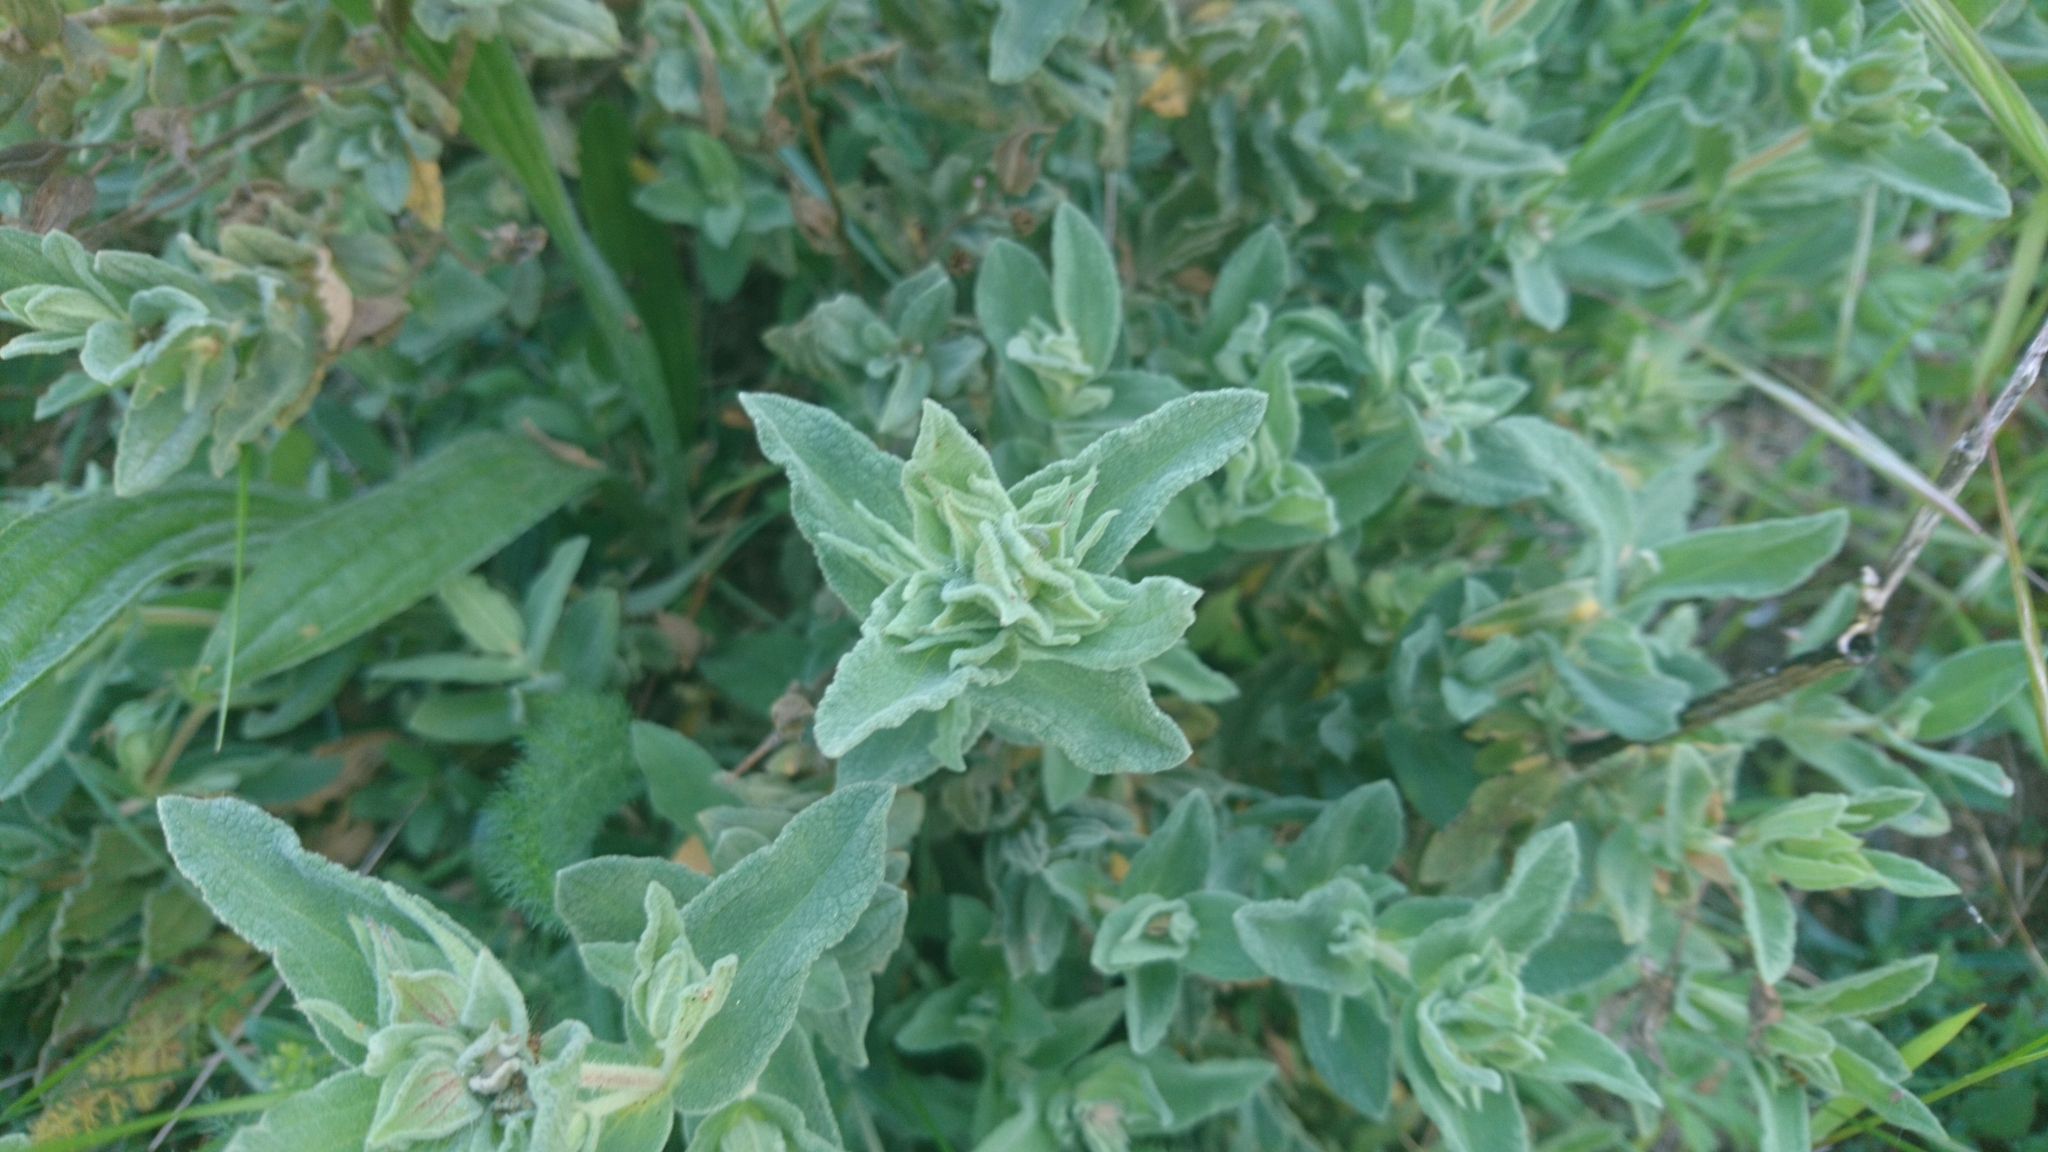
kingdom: Plantae
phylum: Tracheophyta
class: Magnoliopsida
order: Malvales
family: Cistaceae
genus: Cistus
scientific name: Cistus albidus
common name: White-leaf rock-rose
